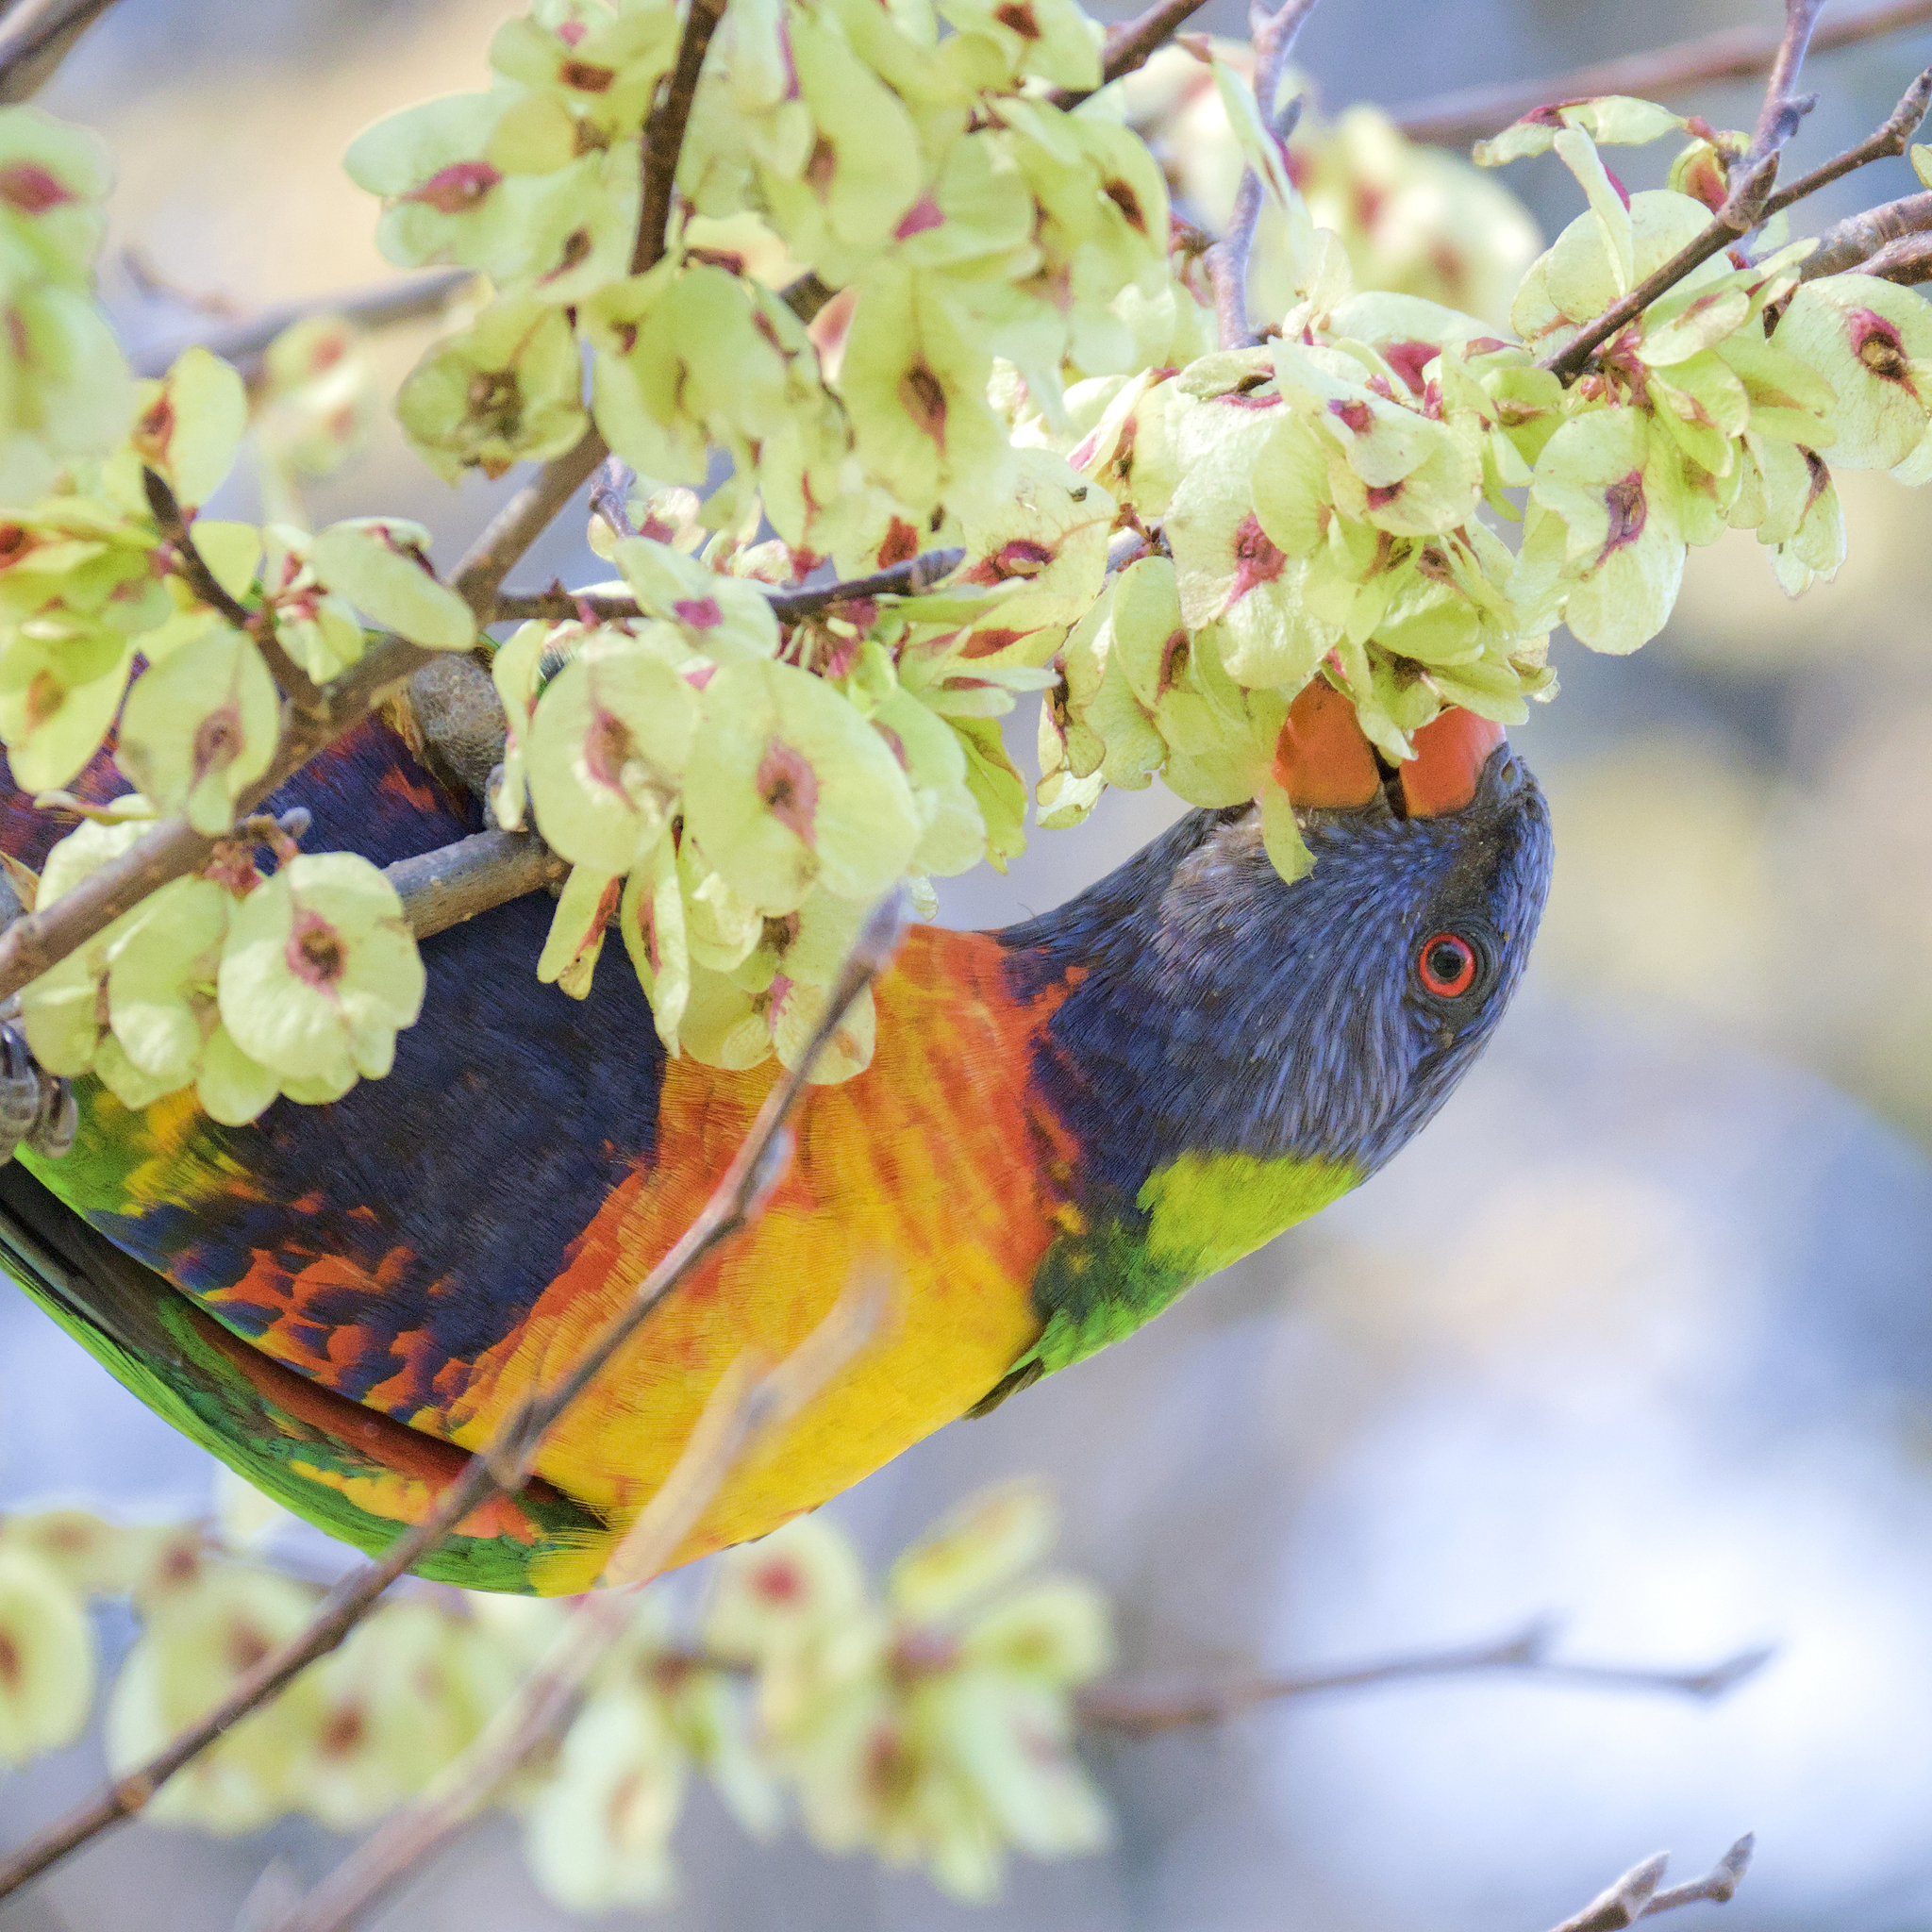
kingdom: Animalia
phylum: Chordata
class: Aves
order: Psittaciformes
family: Psittacidae
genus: Trichoglossus
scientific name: Trichoglossus haematodus
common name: Coconut lorikeet
